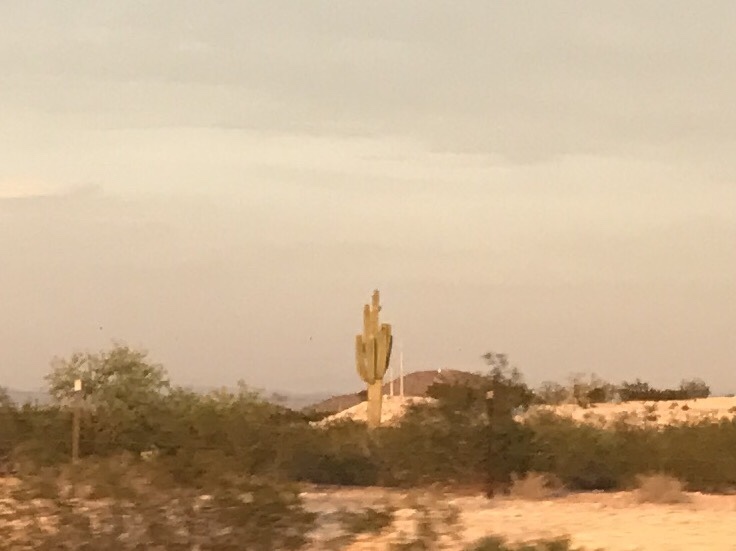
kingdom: Plantae
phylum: Tracheophyta
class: Magnoliopsida
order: Caryophyllales
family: Cactaceae
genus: Carnegiea
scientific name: Carnegiea gigantea
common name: Saguaro
